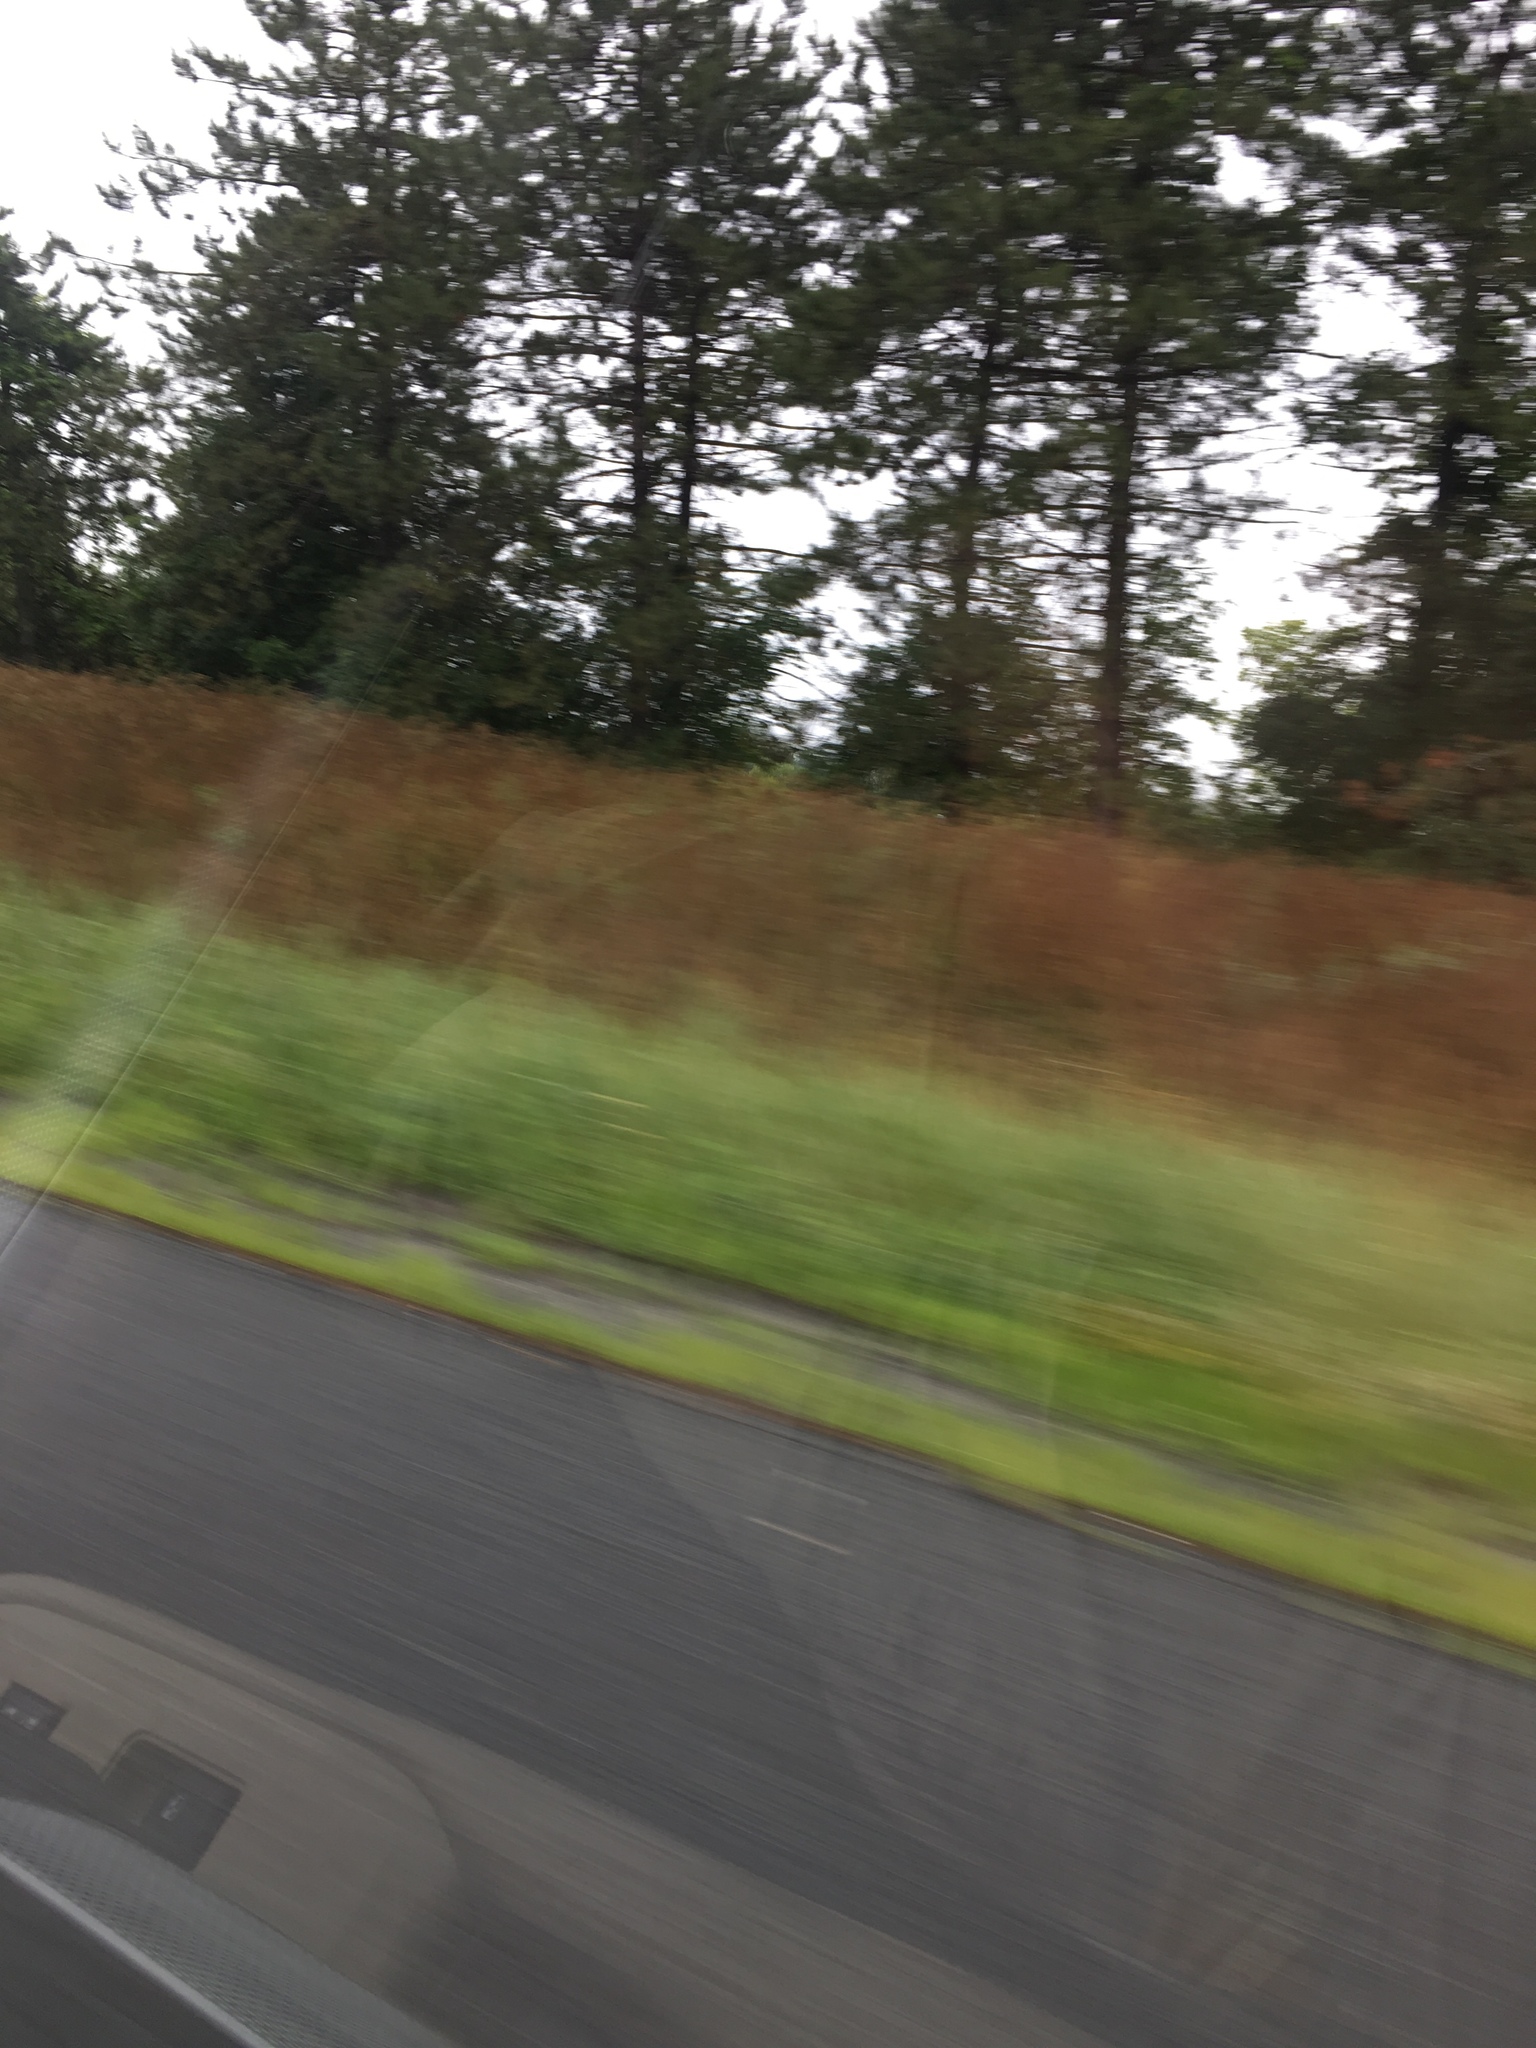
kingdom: Plantae
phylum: Tracheophyta
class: Magnoliopsida
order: Apiales
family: Apiaceae
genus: Anthriscus
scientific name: Anthriscus sylvestris
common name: Cow parsley
